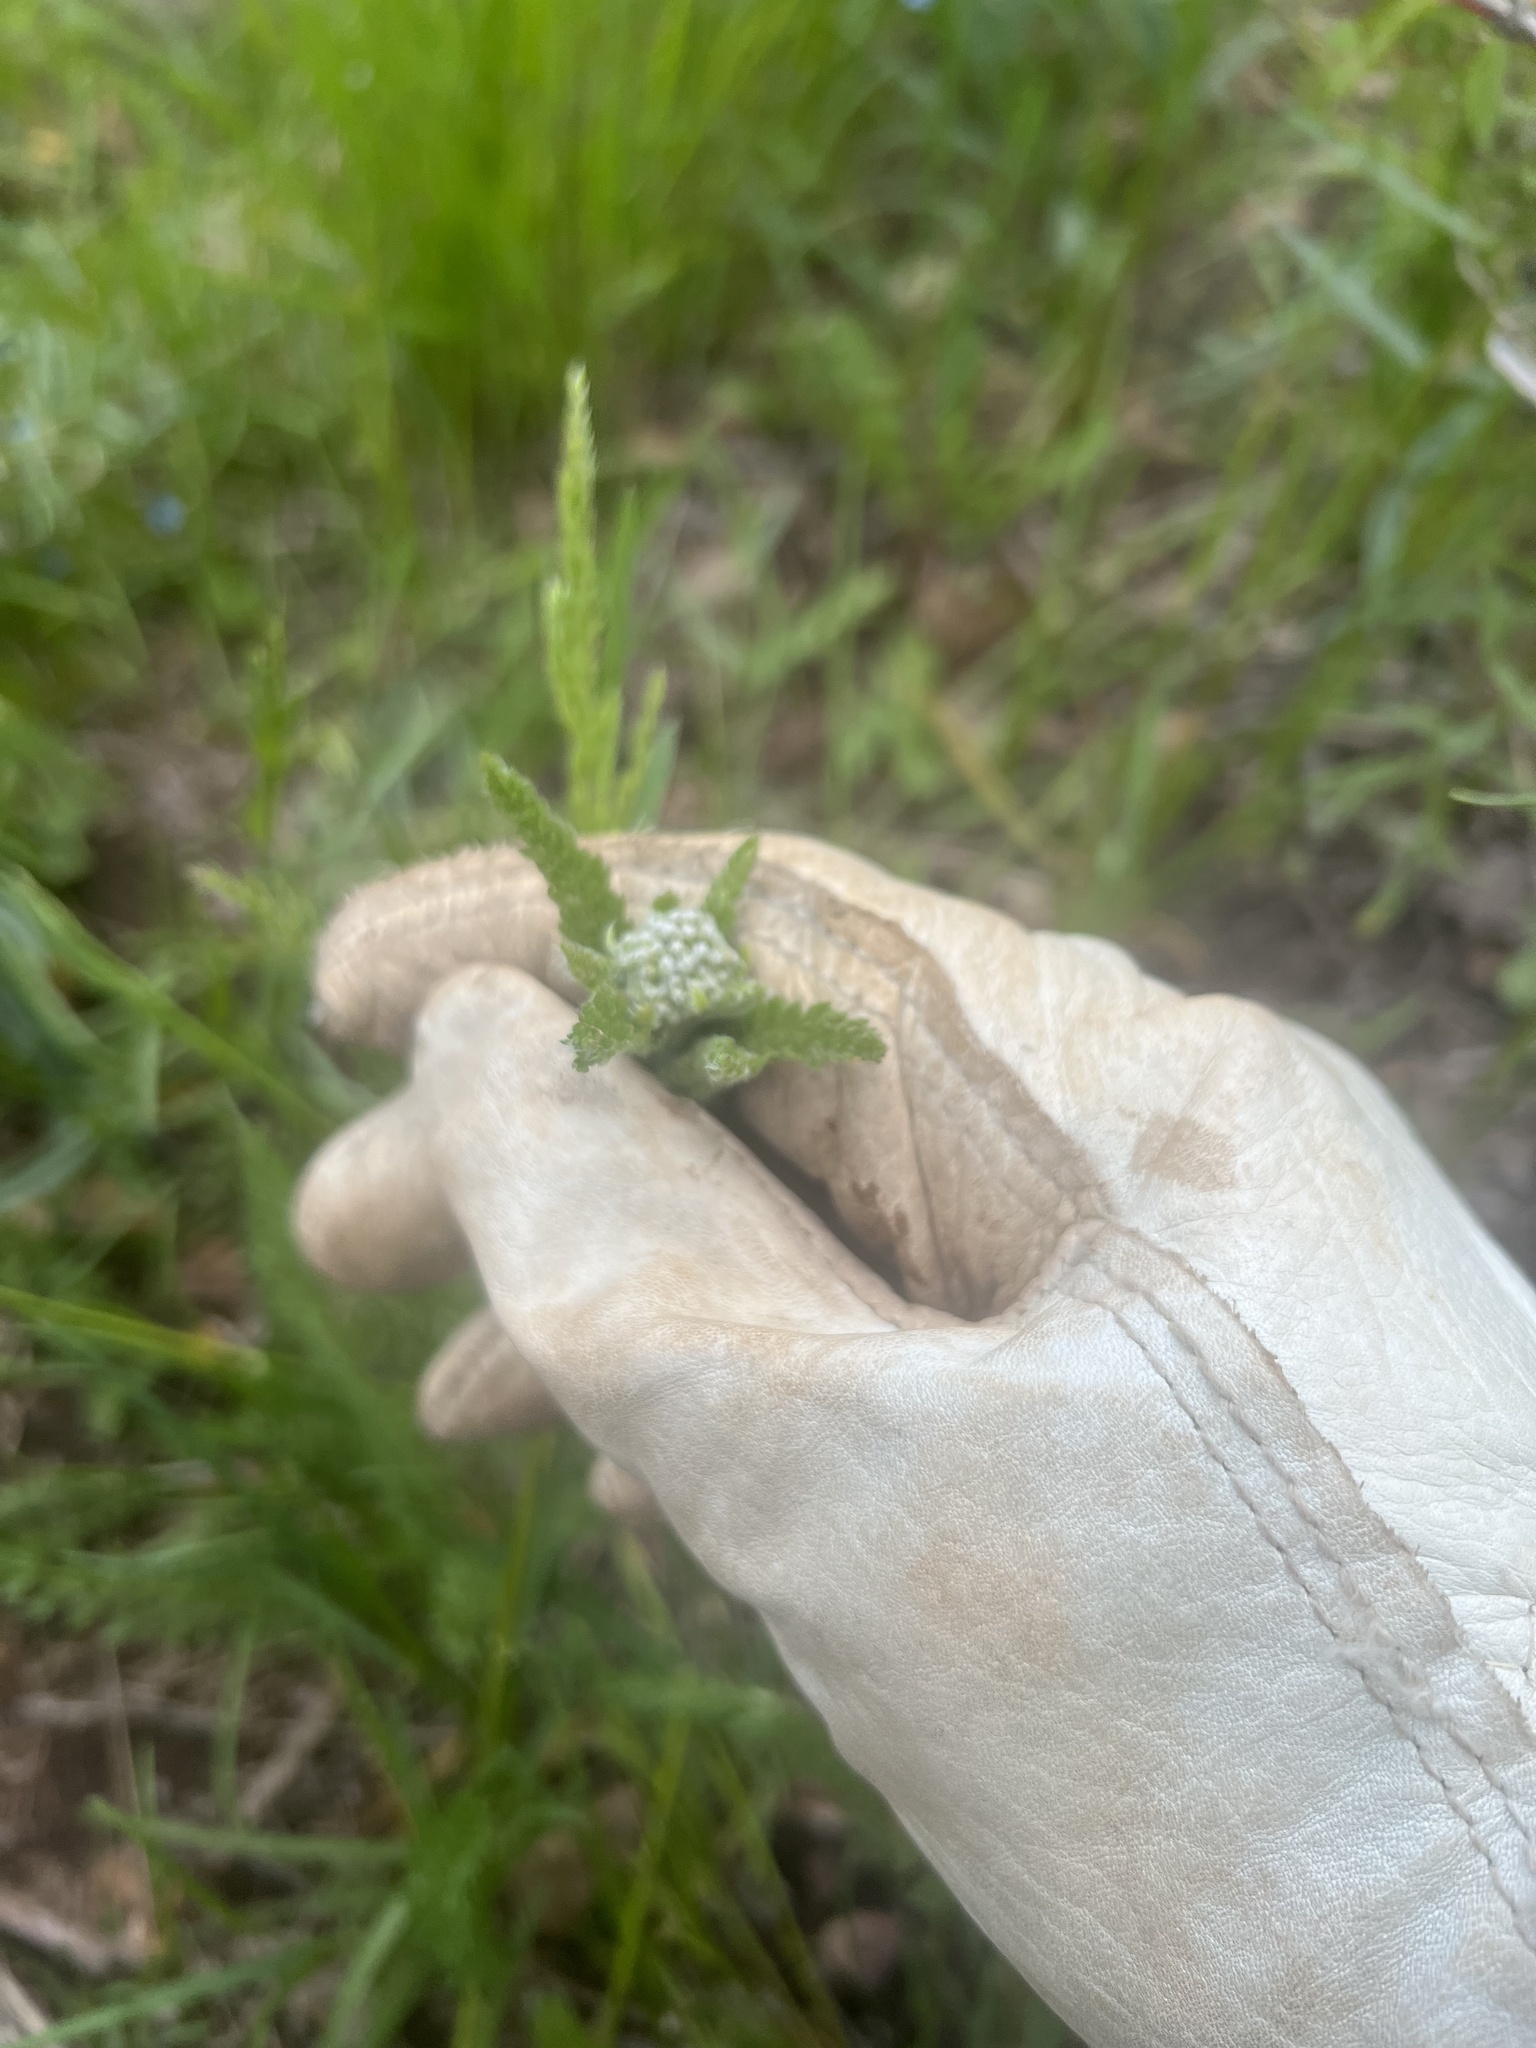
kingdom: Plantae
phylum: Tracheophyta
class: Magnoliopsida
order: Asterales
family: Asteraceae
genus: Achillea
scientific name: Achillea millefolium
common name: Yarrow
